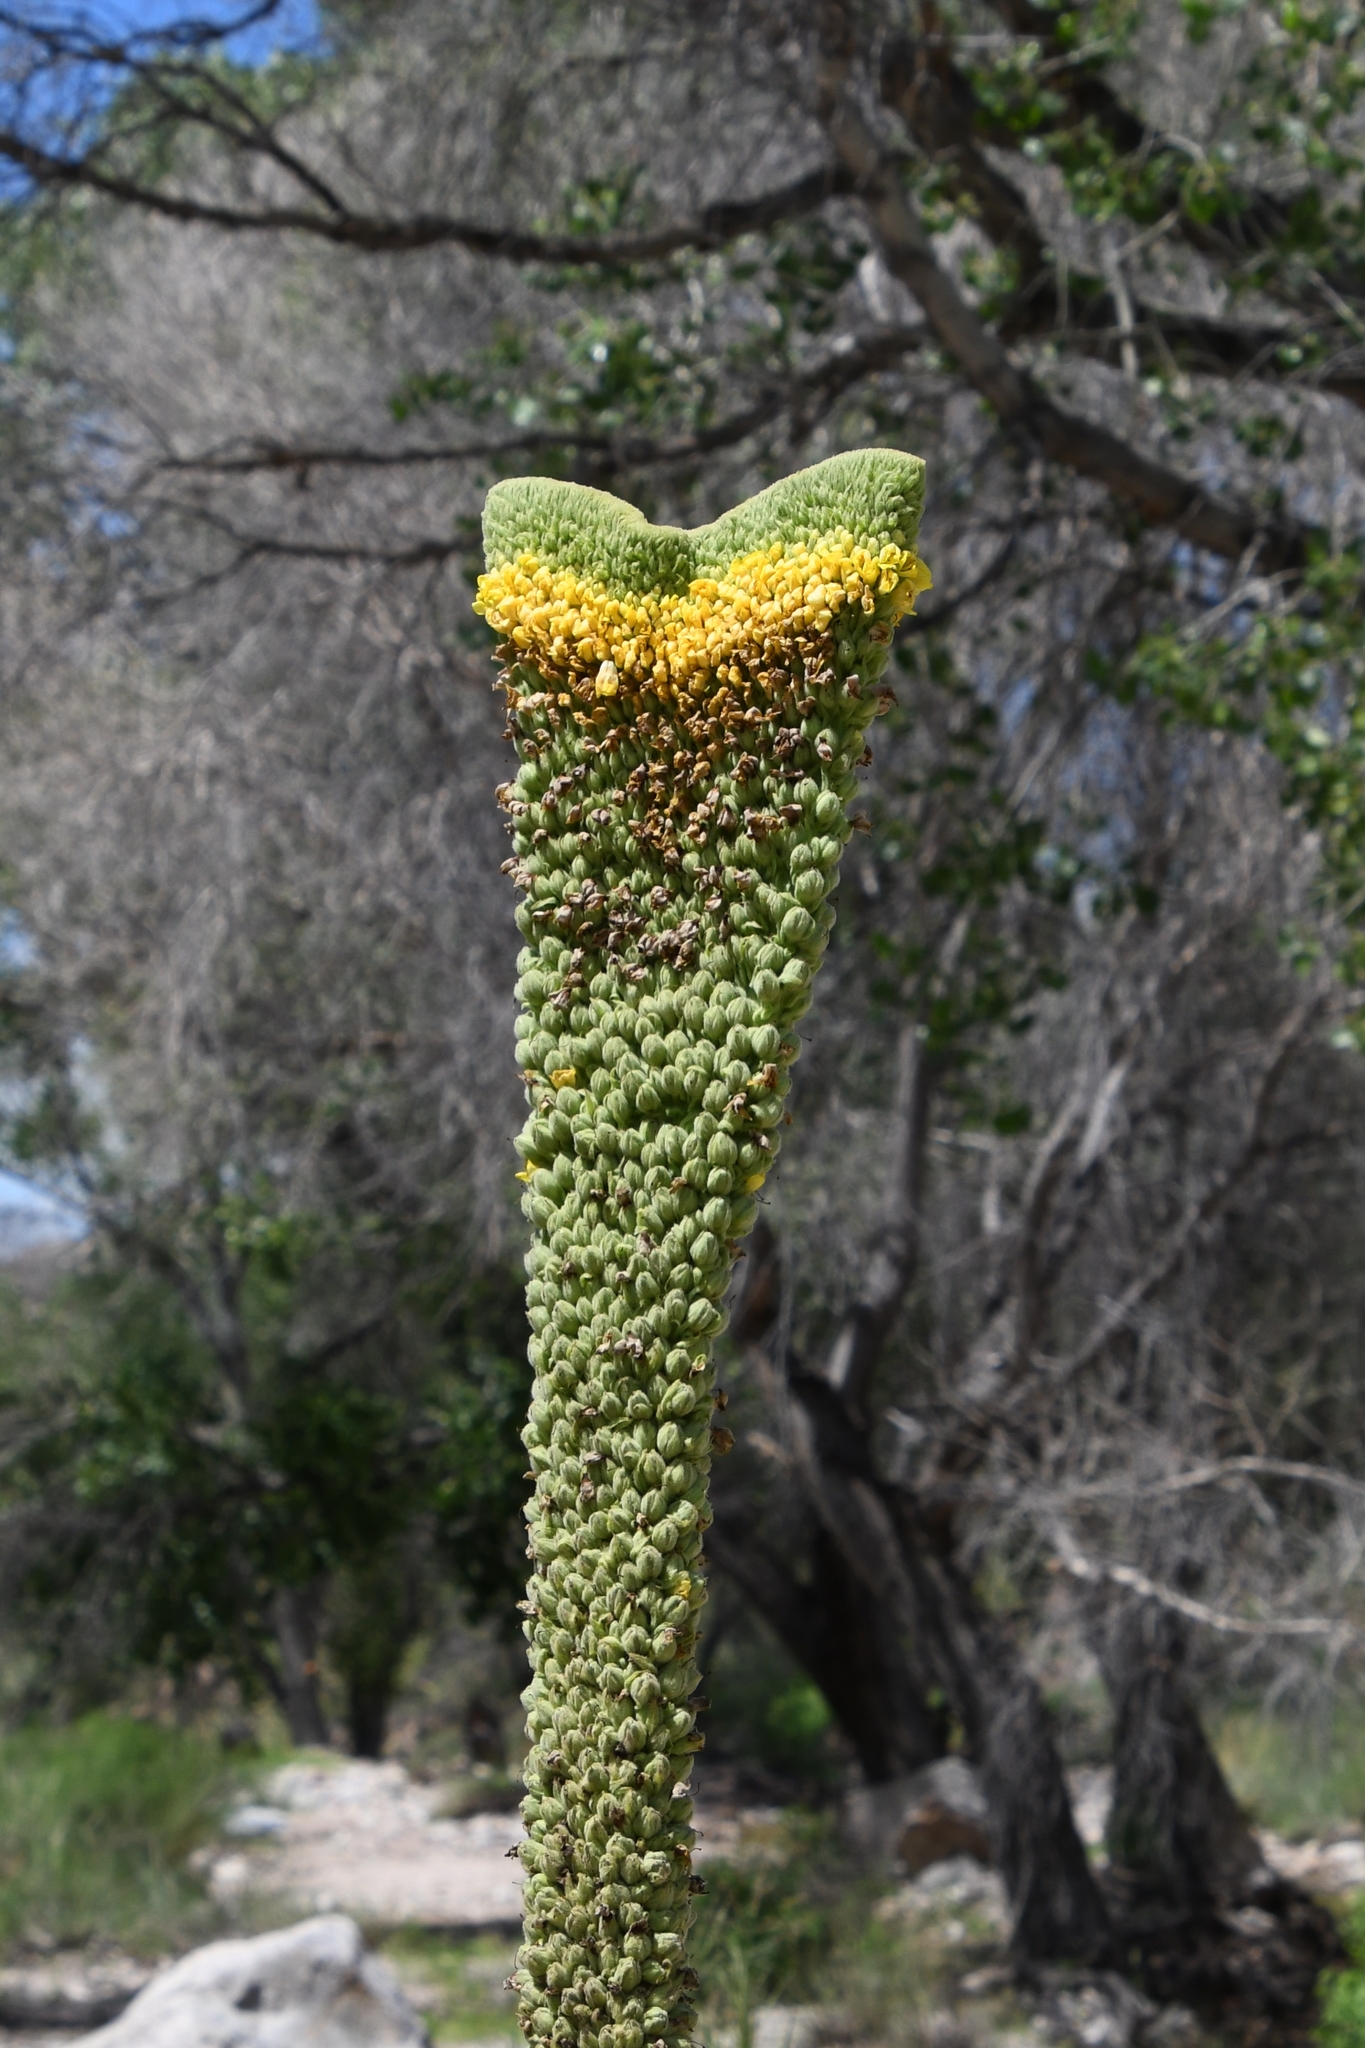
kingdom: Plantae
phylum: Tracheophyta
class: Magnoliopsida
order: Lamiales
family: Scrophulariaceae
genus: Verbascum
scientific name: Verbascum thapsus
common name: Common mullein
